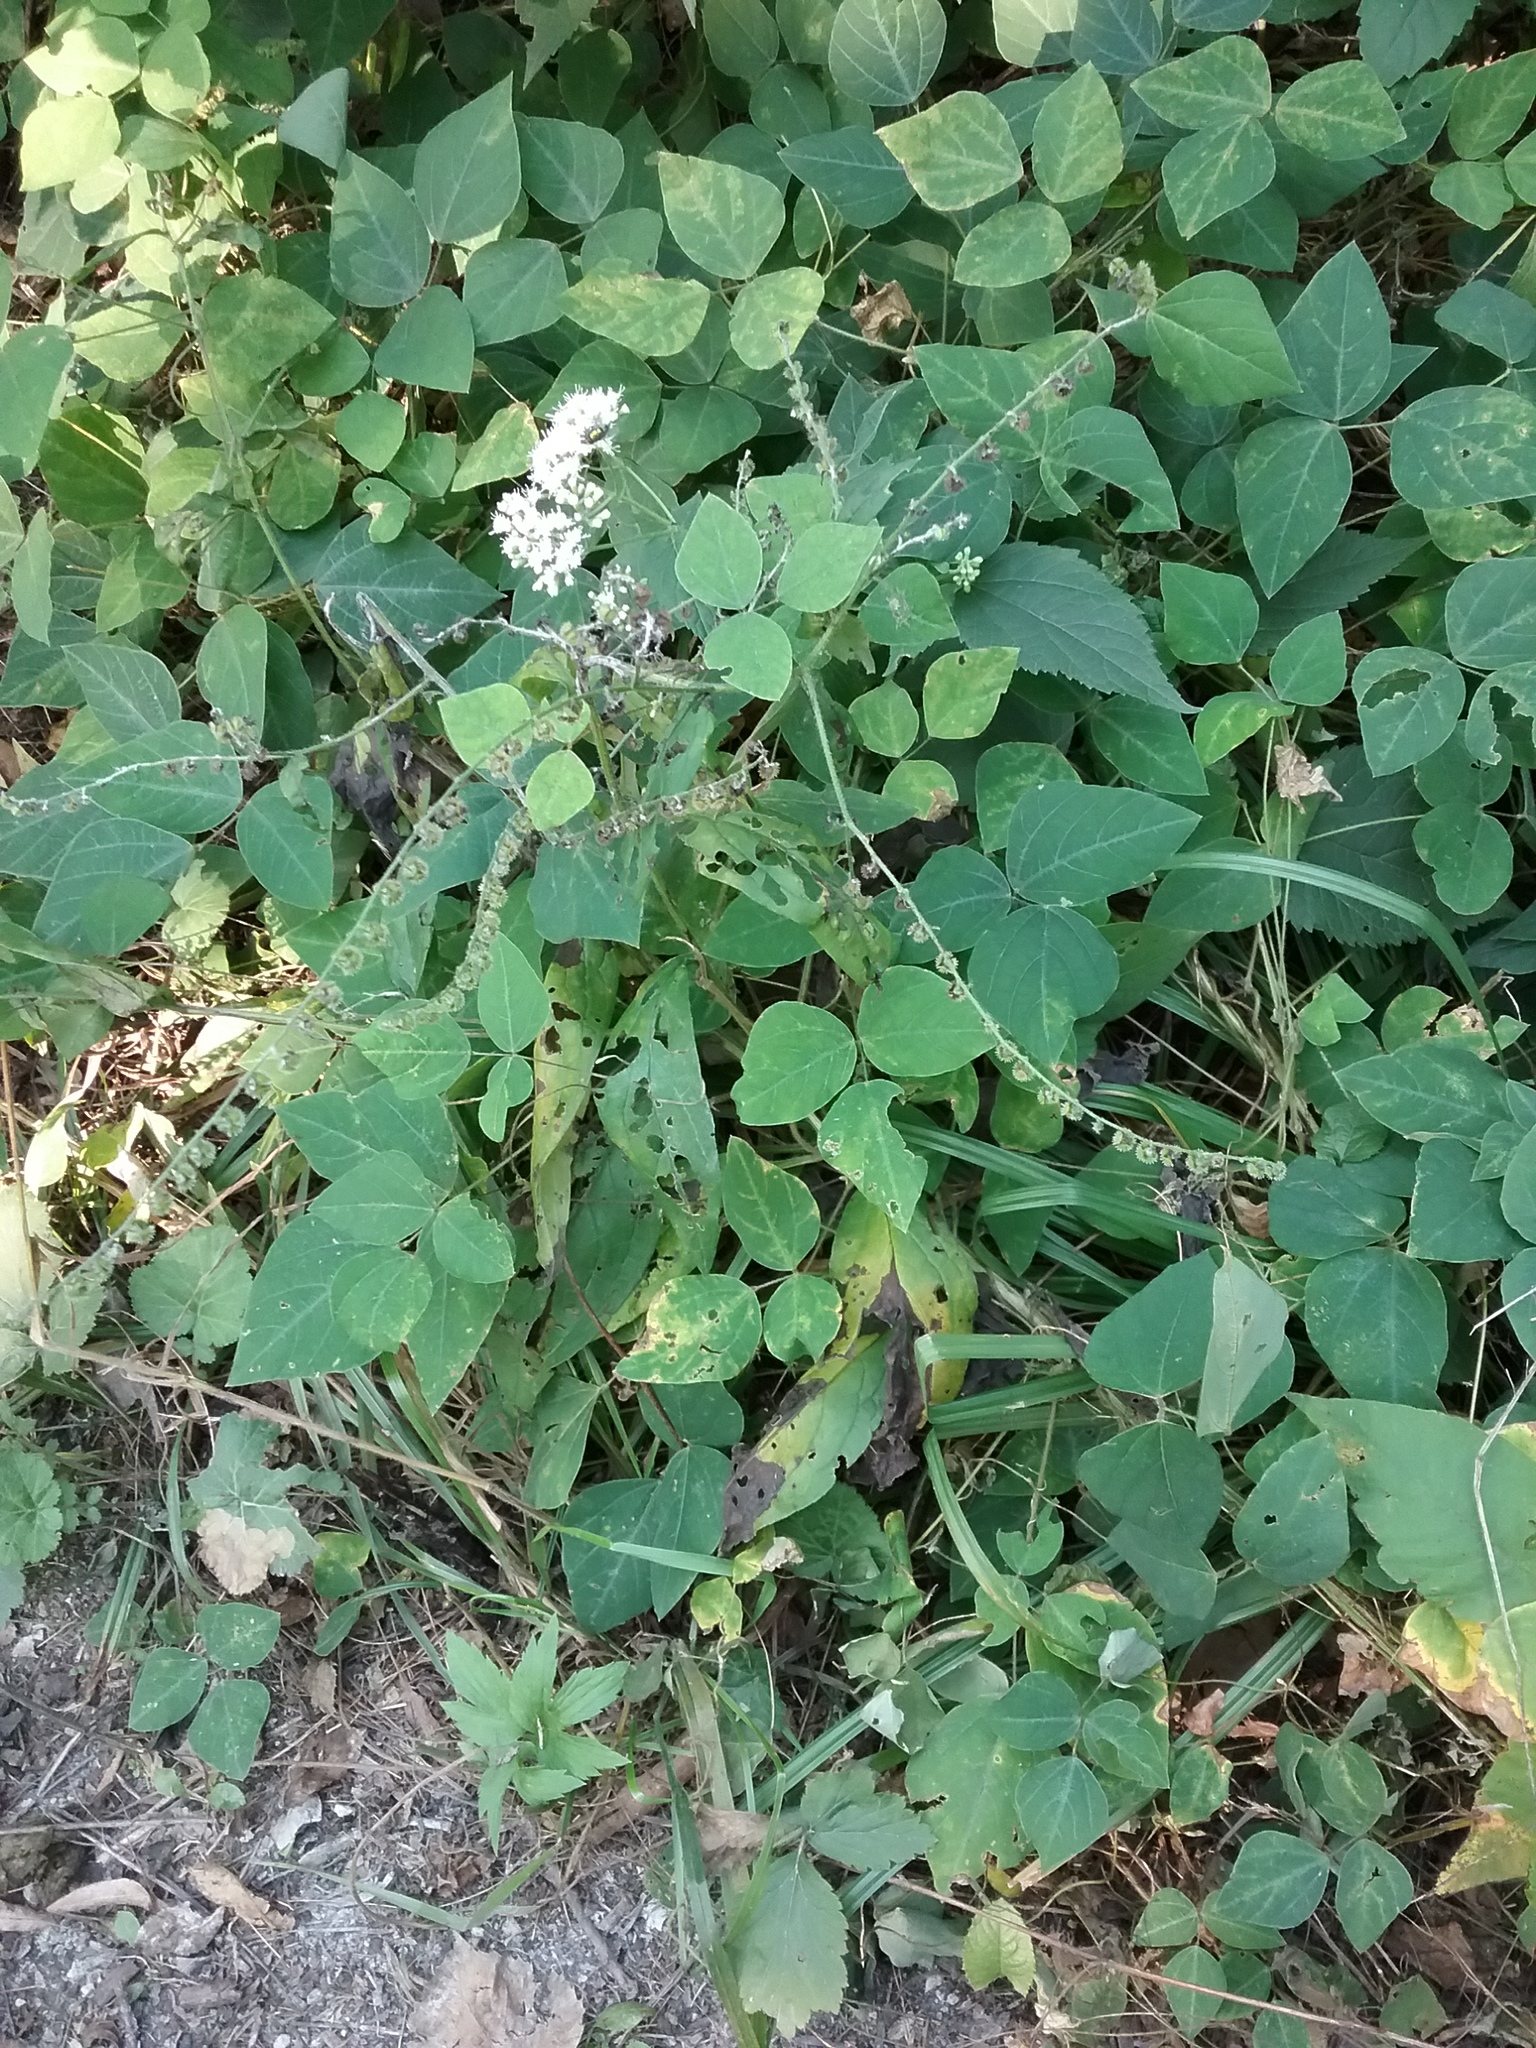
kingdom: Plantae
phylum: Tracheophyta
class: Magnoliopsida
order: Boraginales
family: Boraginaceae
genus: Hackelia
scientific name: Hackelia virginiana
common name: Beggar's-lice
